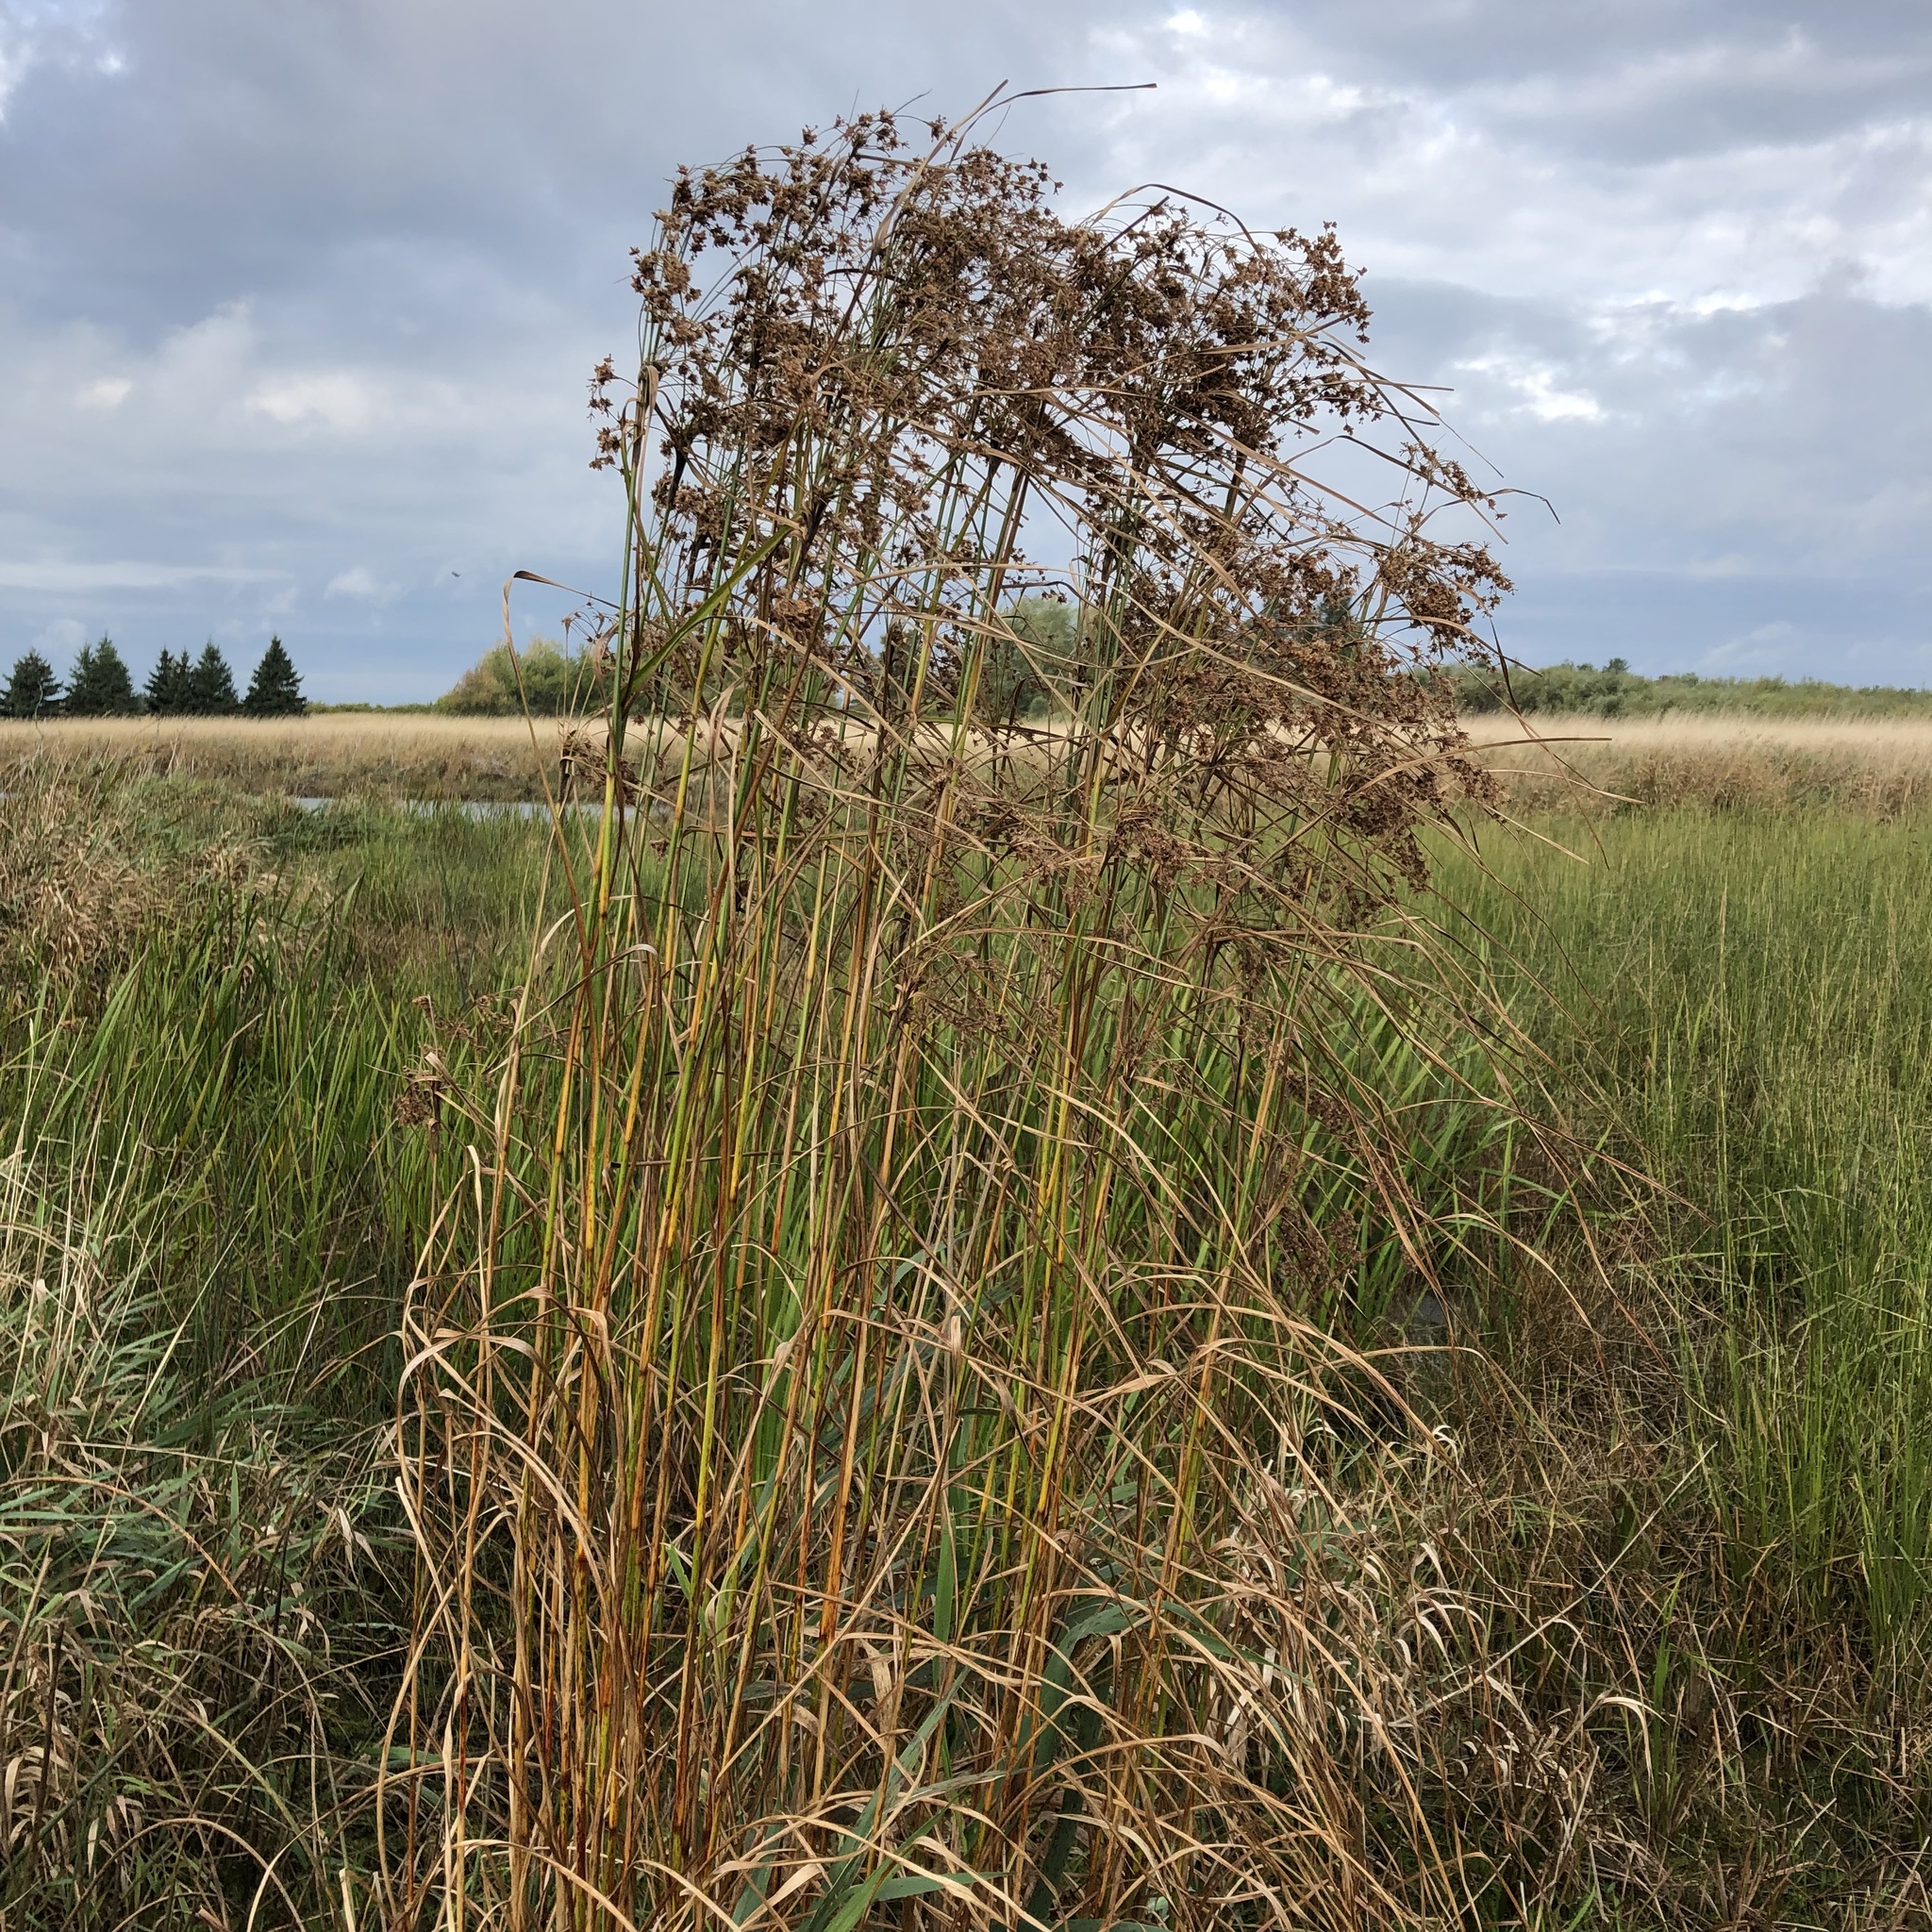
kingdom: Plantae
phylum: Tracheophyta
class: Liliopsida
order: Poales
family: Cyperaceae
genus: Scirpus
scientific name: Scirpus cyperinus
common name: Black-sheathed bulrush
